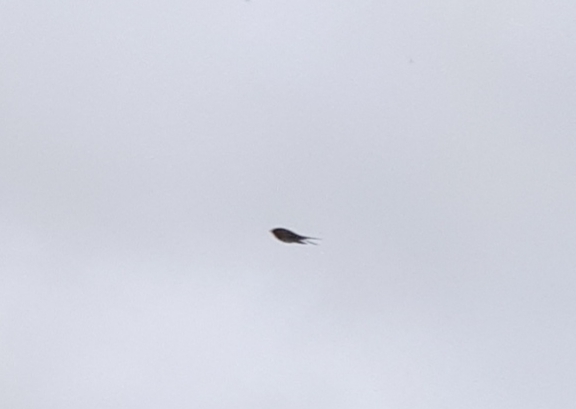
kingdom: Animalia
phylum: Chordata
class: Aves
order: Passeriformes
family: Hirundinidae
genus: Hirundo
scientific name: Hirundo neoxena
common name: Welcome swallow
